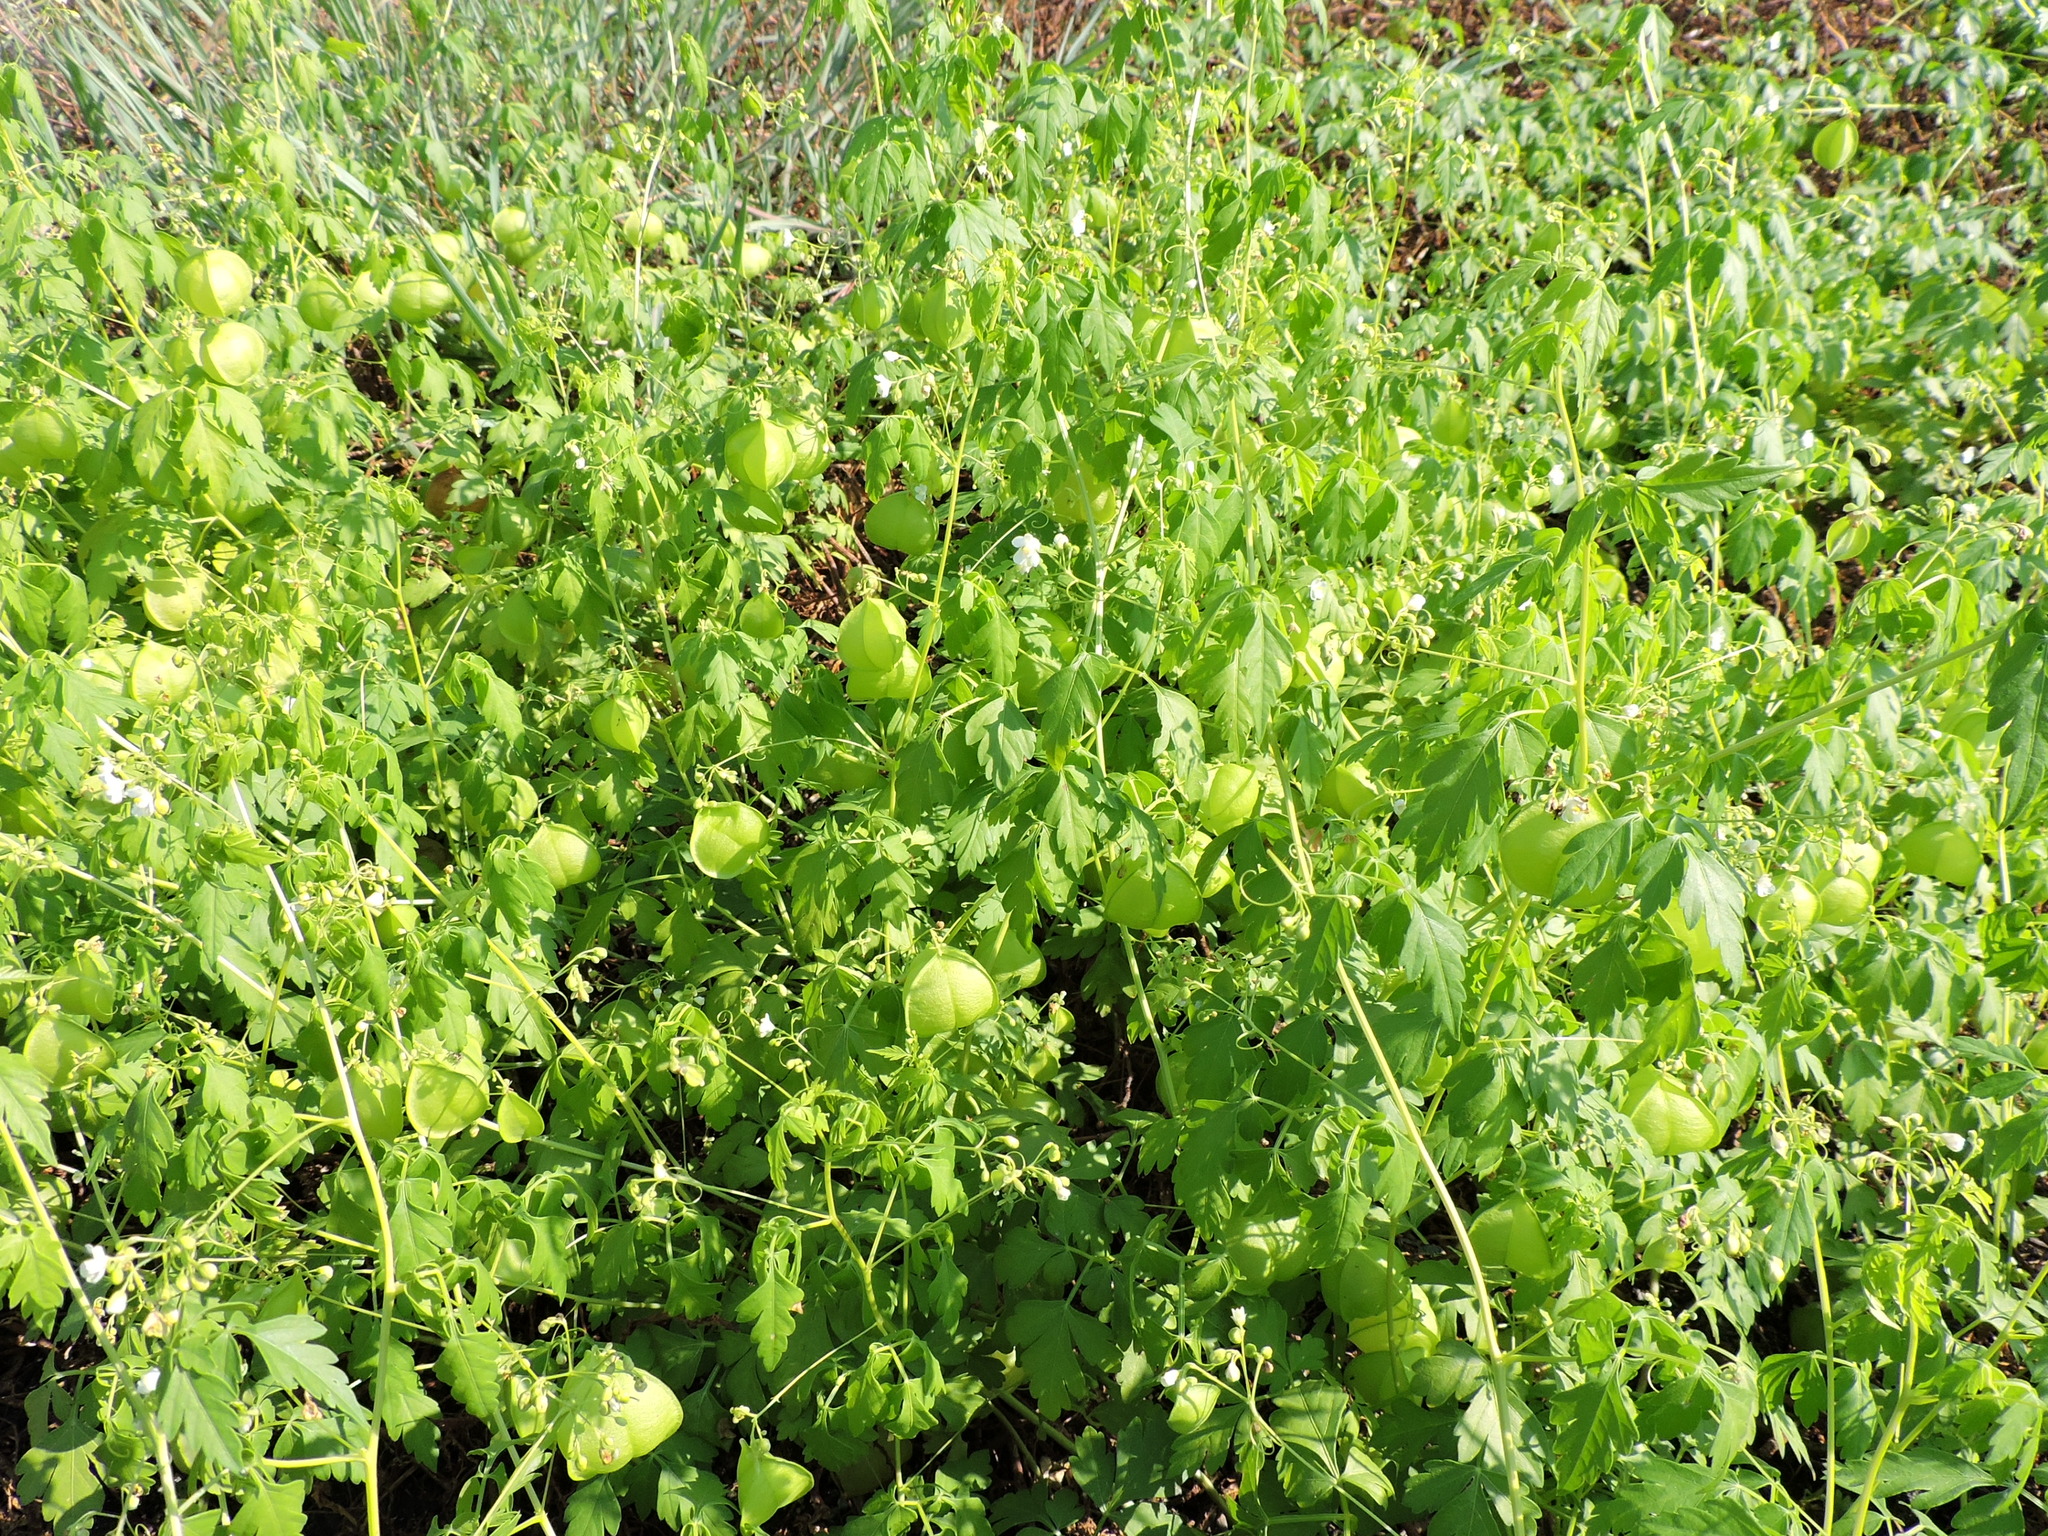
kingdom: Plantae
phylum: Tracheophyta
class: Magnoliopsida
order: Sapindales
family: Sapindaceae
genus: Cardiospermum
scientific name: Cardiospermum halicacabum
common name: Balloon vine
